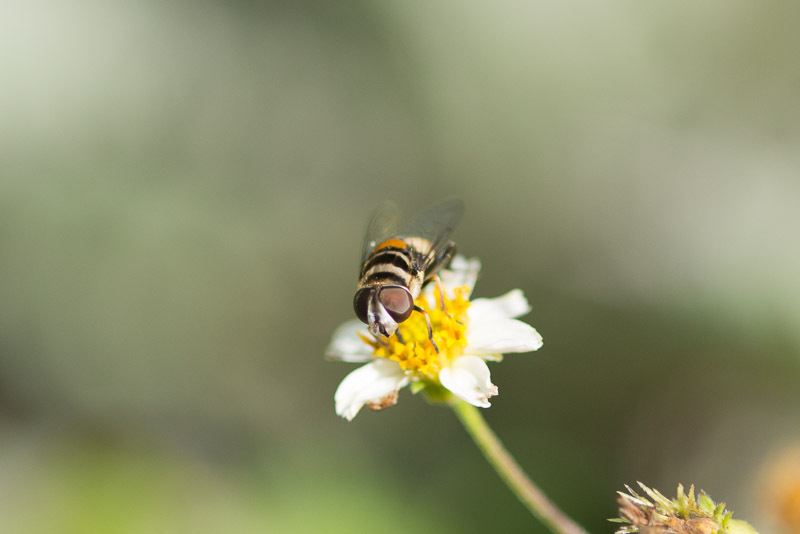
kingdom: Animalia
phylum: Arthropoda
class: Insecta
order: Diptera
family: Syrphidae
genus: Palpada
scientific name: Palpada albifrons
